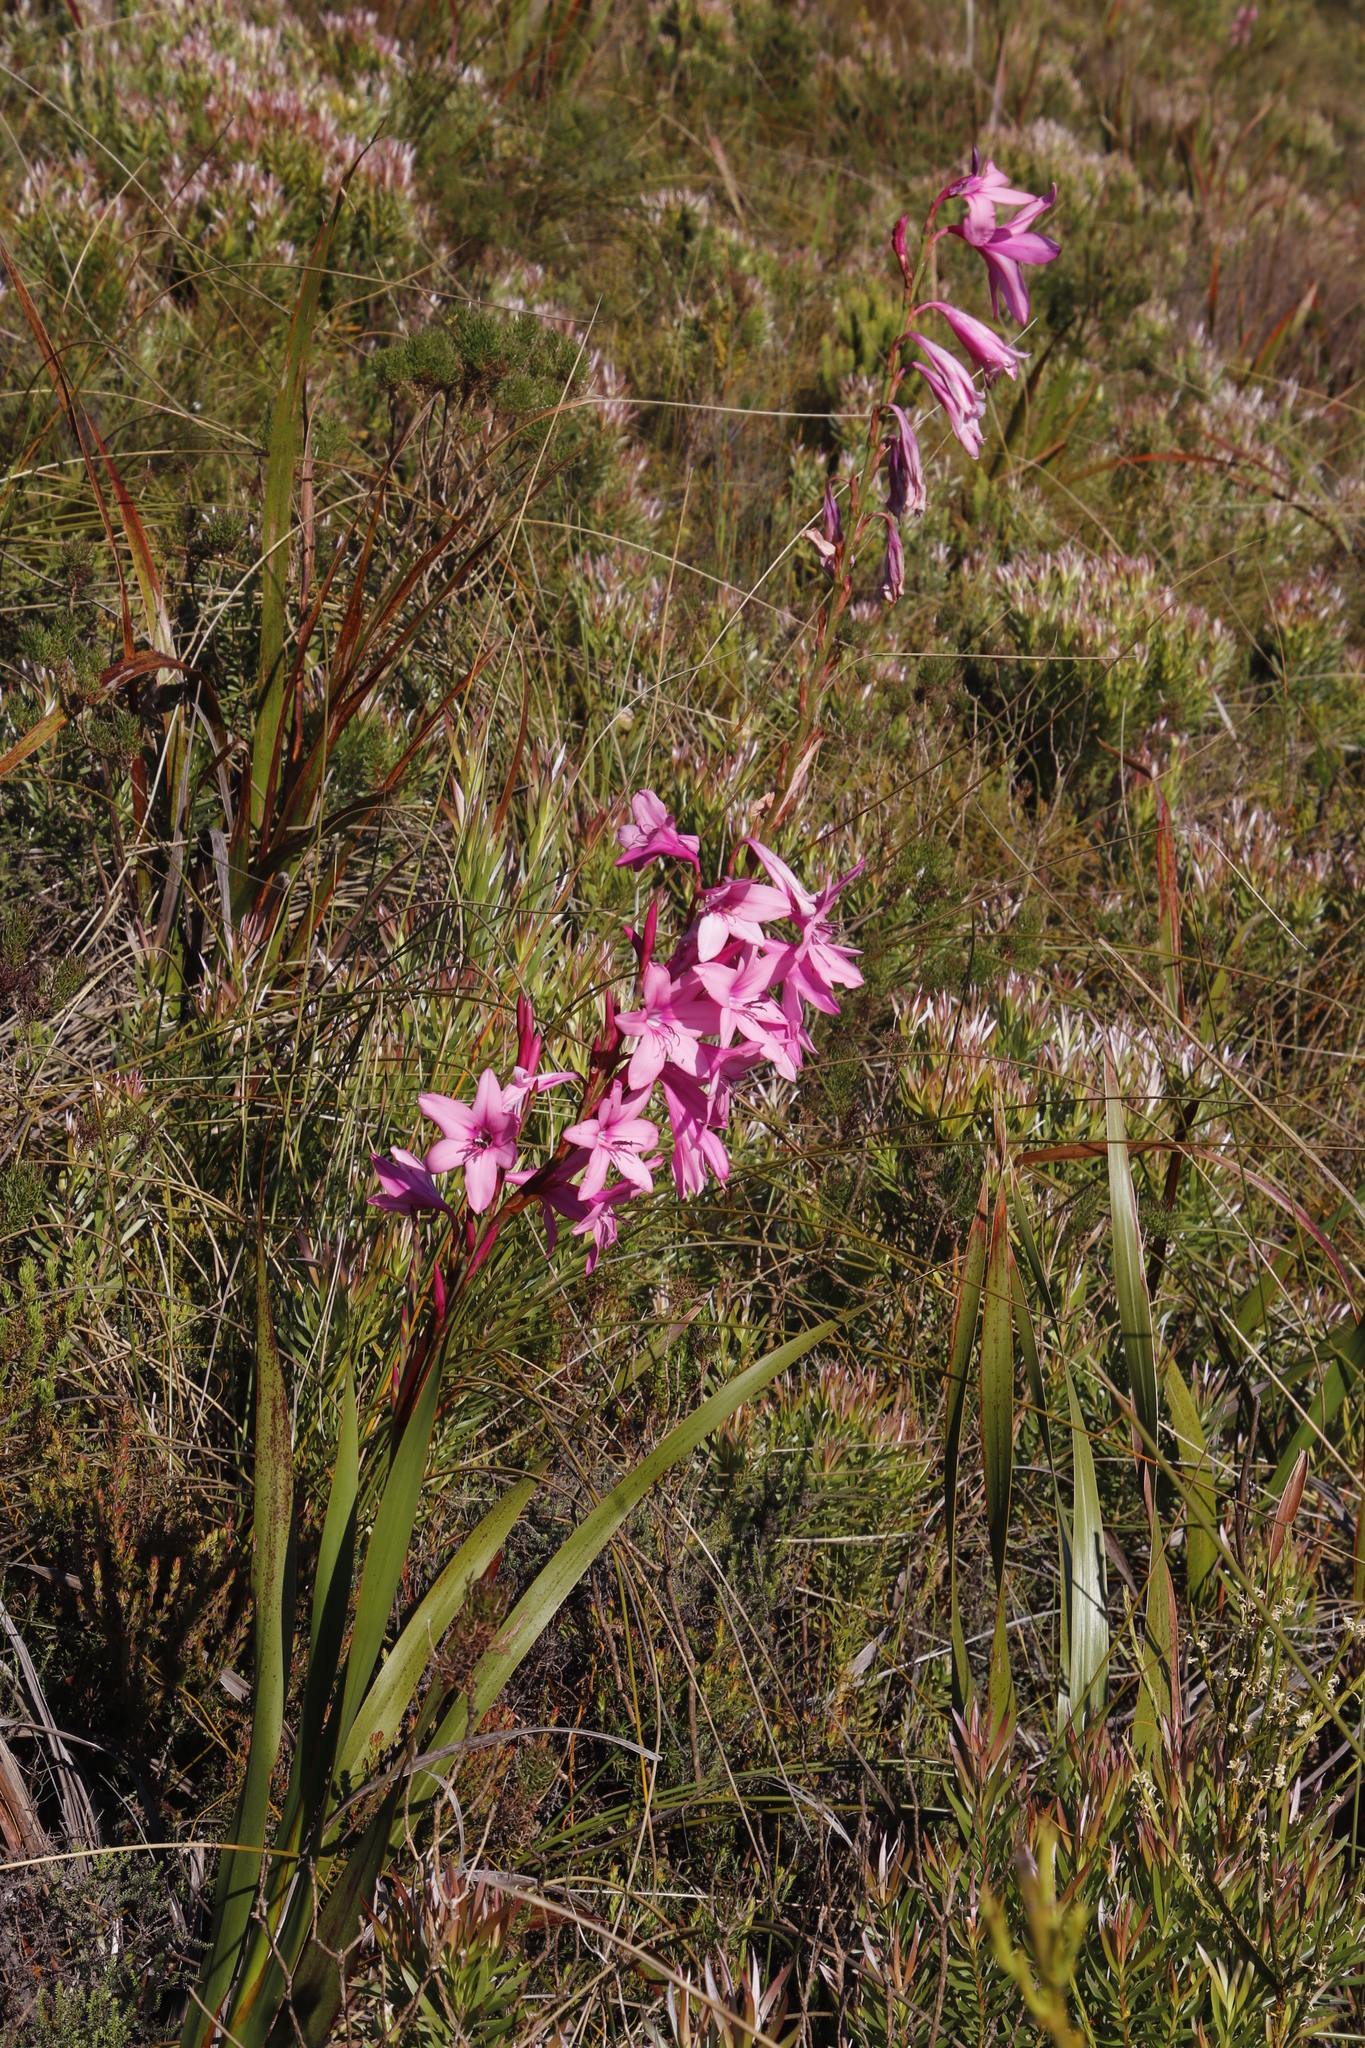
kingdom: Plantae
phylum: Tracheophyta
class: Liliopsida
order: Asparagales
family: Iridaceae
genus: Watsonia
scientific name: Watsonia borbonica
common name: Bugle-lily
